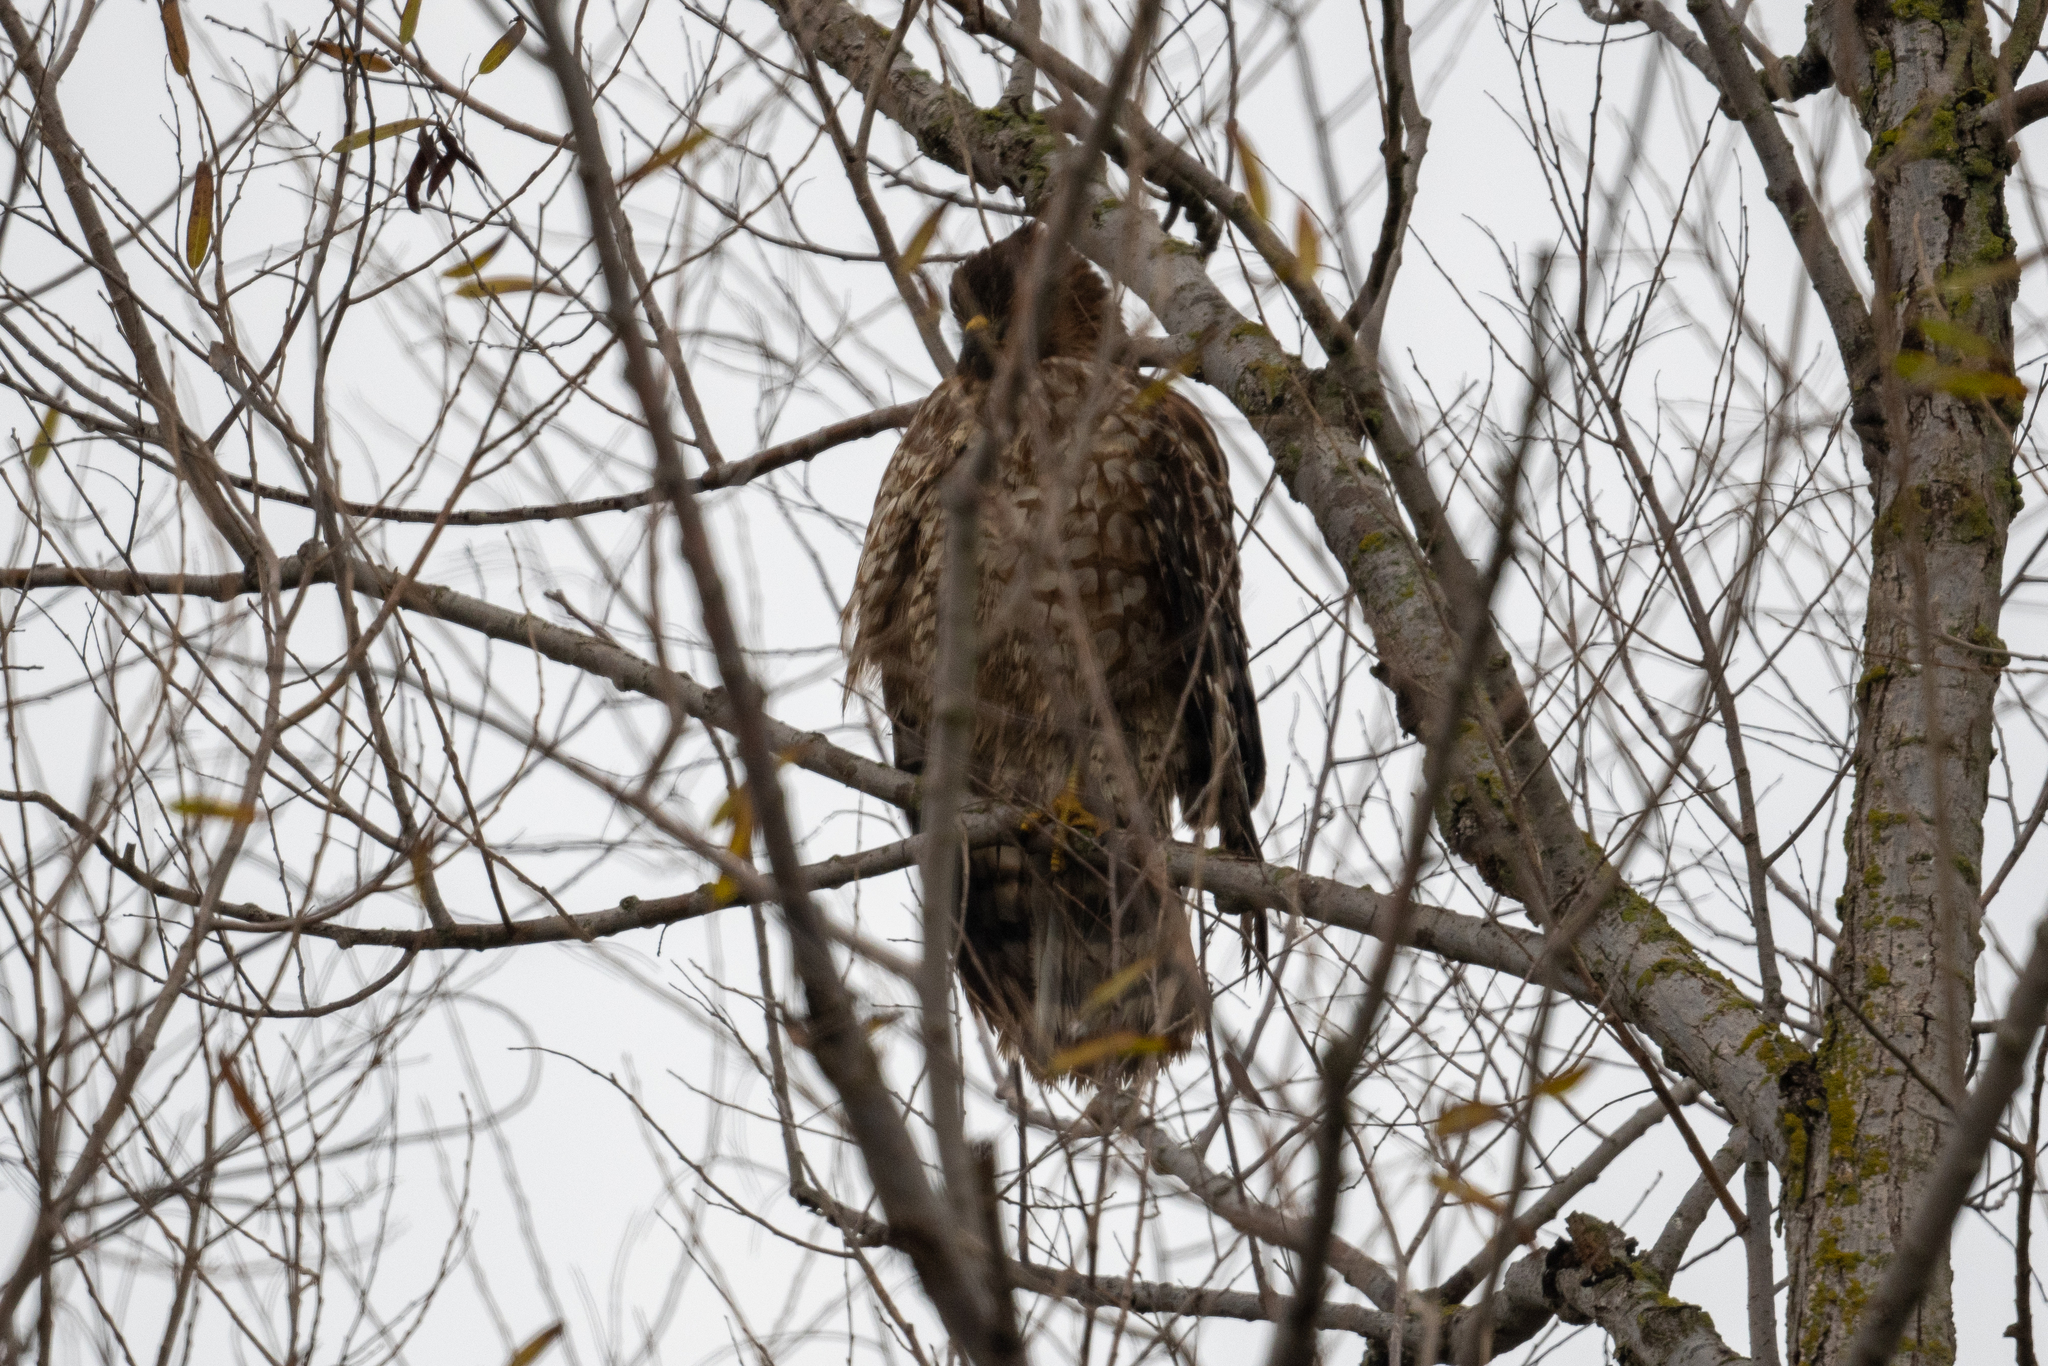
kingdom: Animalia
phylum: Chordata
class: Aves
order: Accipitriformes
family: Accipitridae
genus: Buteo
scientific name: Buteo lineatus
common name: Red-shouldered hawk
